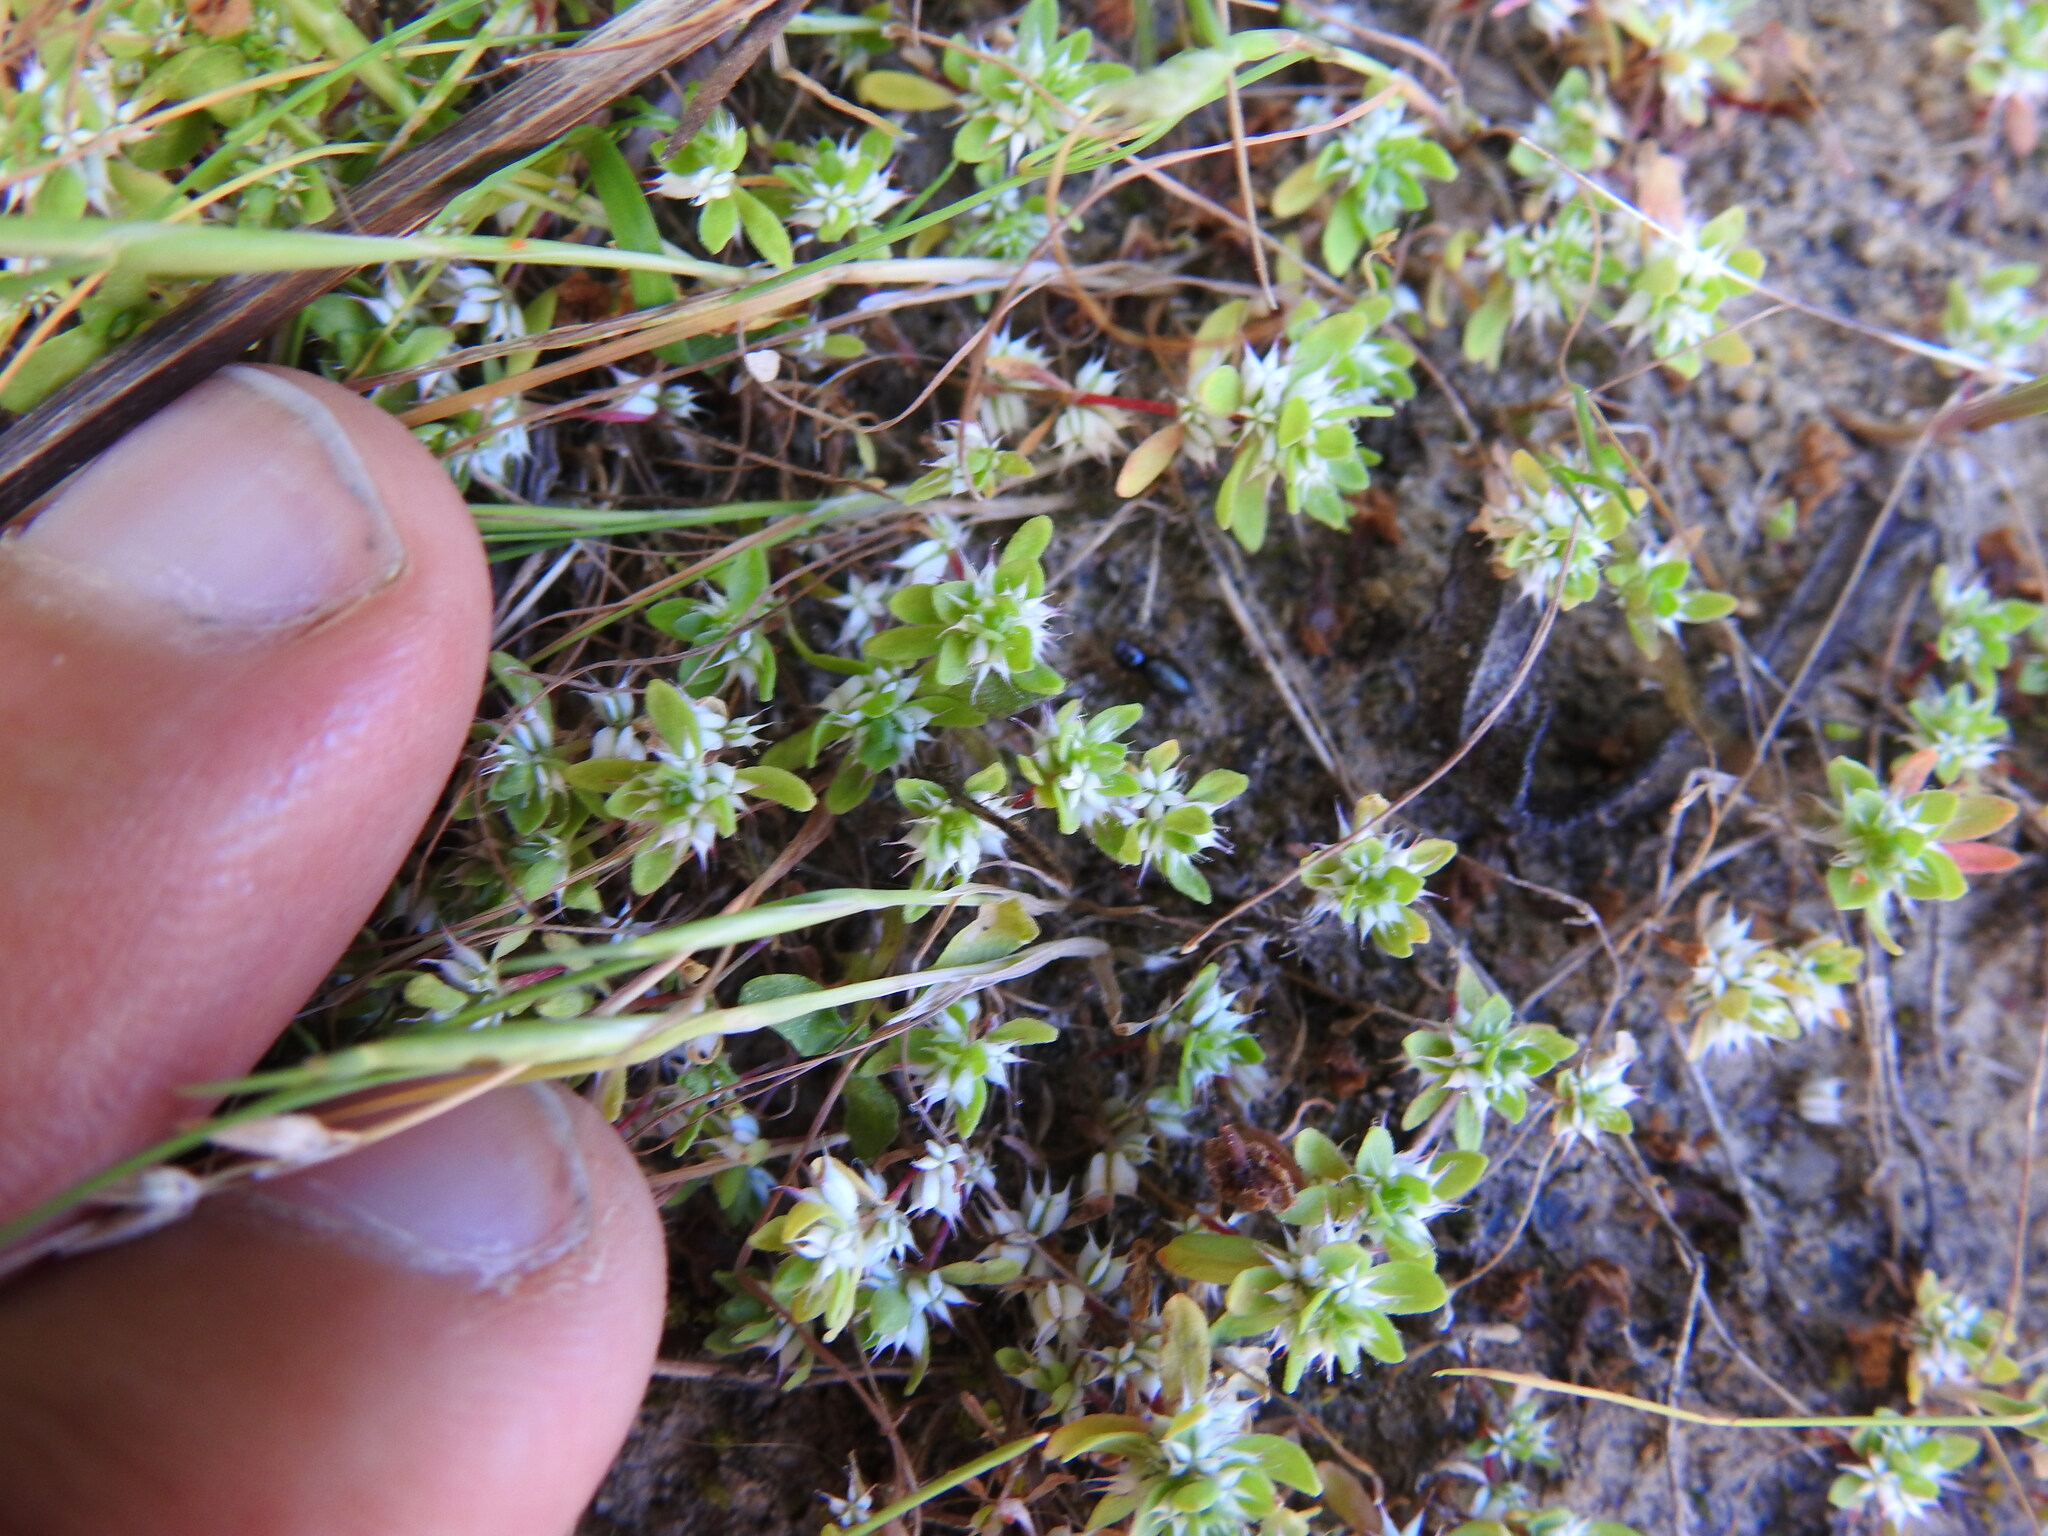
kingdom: Plantae
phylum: Tracheophyta
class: Magnoliopsida
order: Caryophyllales
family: Caryophyllaceae
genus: Illecebrum
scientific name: Illecebrum verticillatum
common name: Coral necklace
